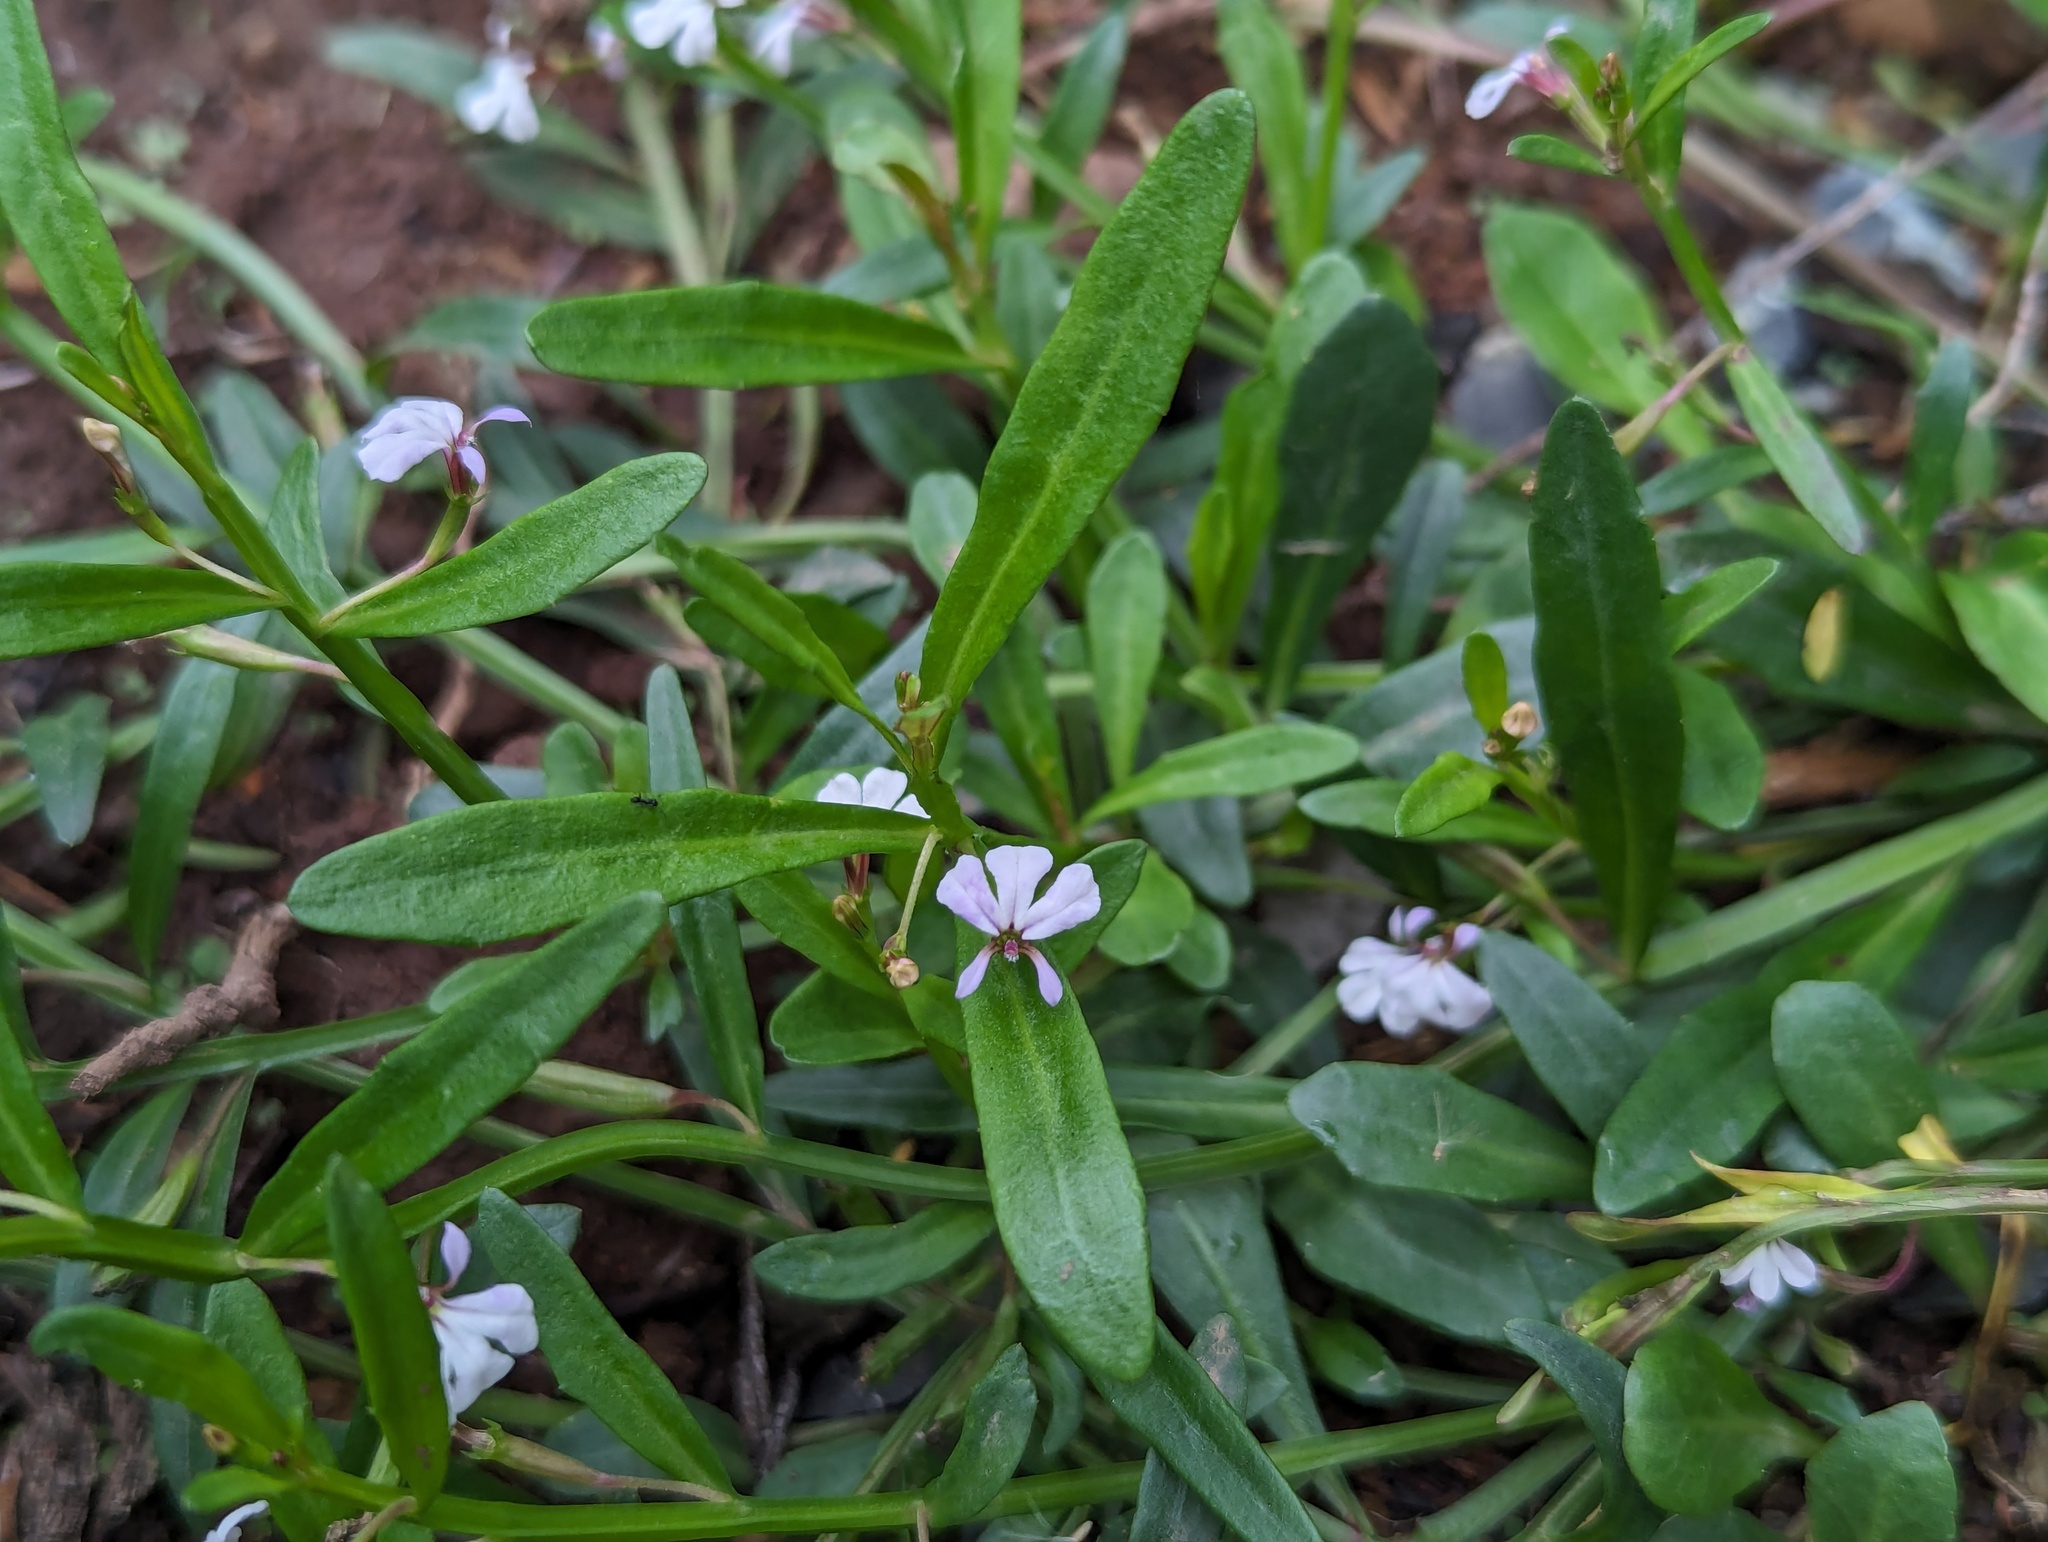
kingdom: Plantae
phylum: Tracheophyta
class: Magnoliopsida
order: Asterales
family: Campanulaceae
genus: Lobelia
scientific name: Lobelia anceps
